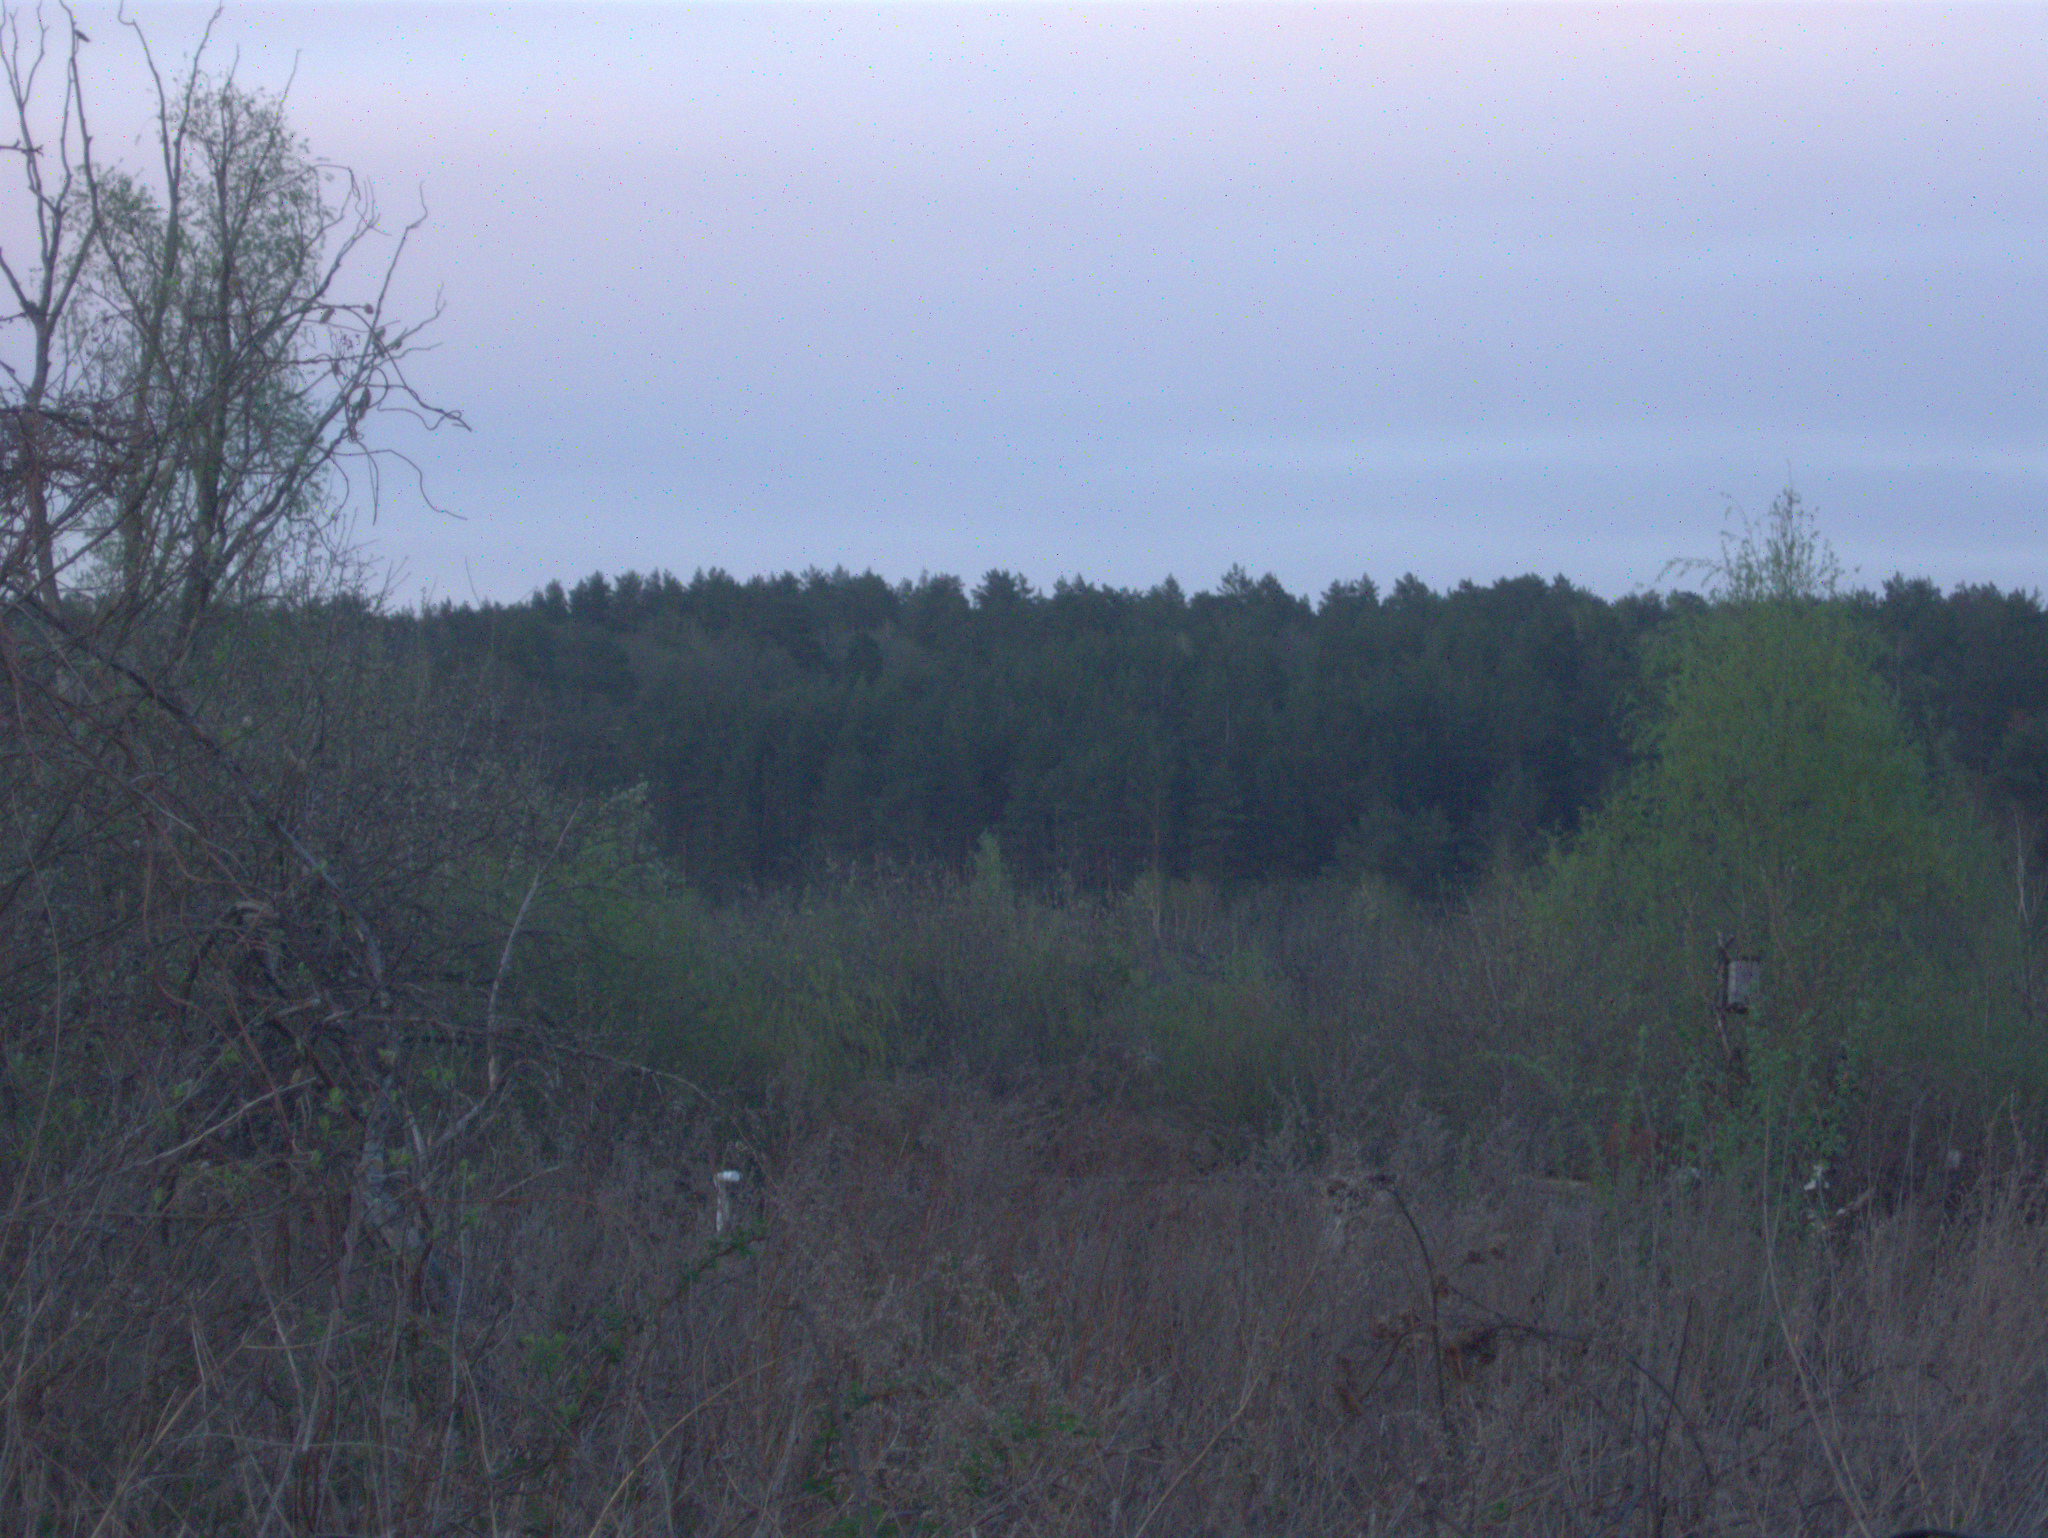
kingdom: Plantae
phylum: Tracheophyta
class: Pinopsida
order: Pinales
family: Pinaceae
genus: Pinus
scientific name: Pinus sylvestris
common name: Scots pine
